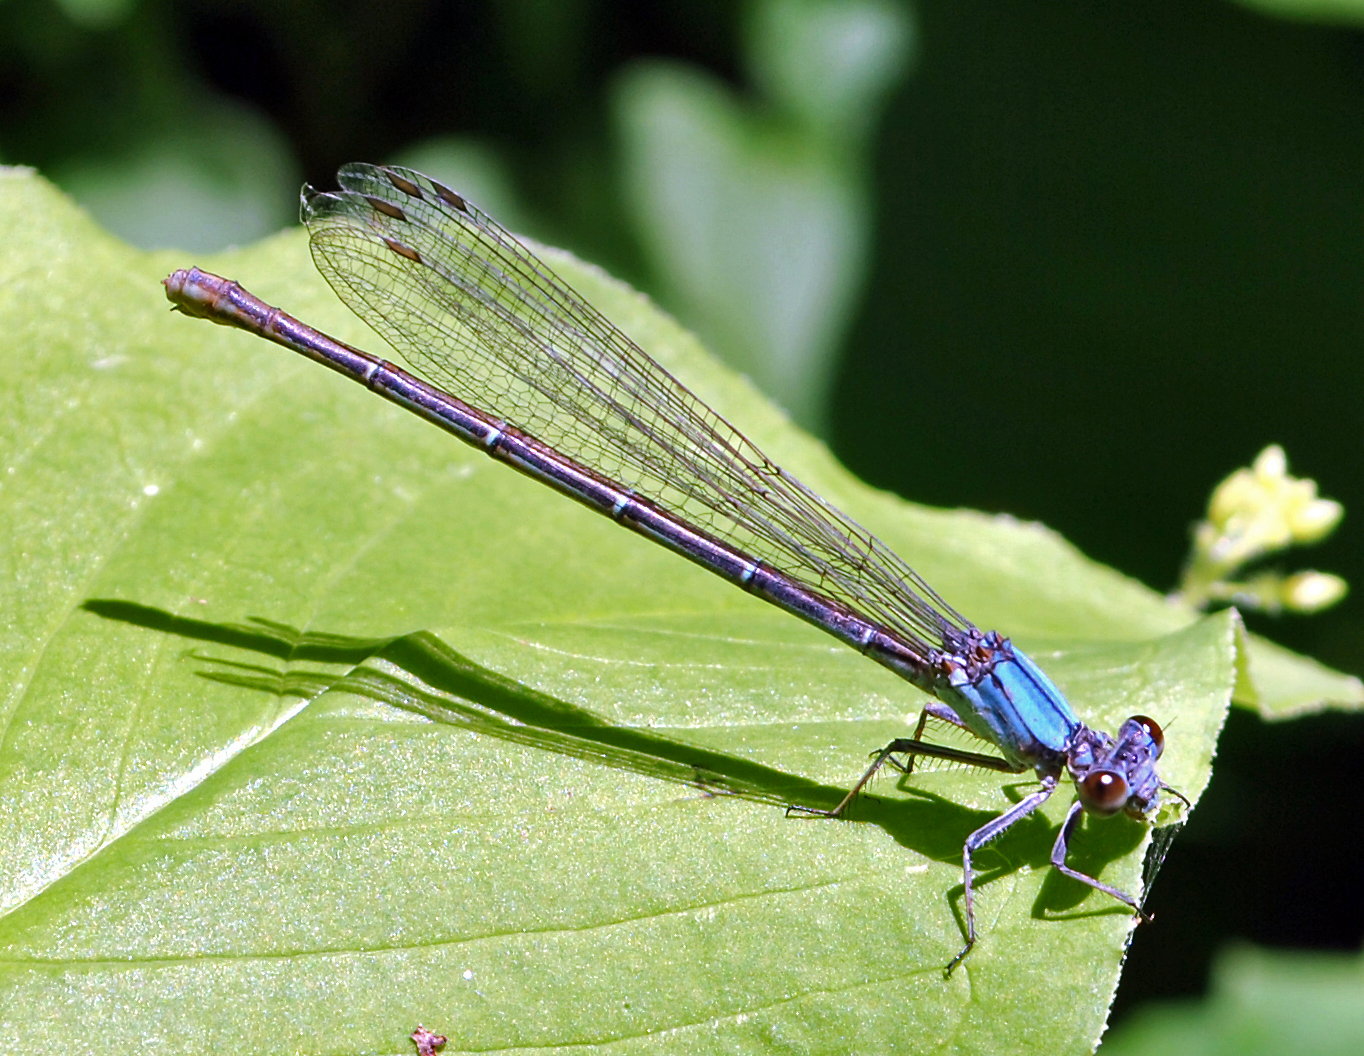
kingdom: Animalia
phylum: Arthropoda
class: Insecta
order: Odonata
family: Coenagrionidae
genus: Argia
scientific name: Argia moesta
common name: Powdered dancer
